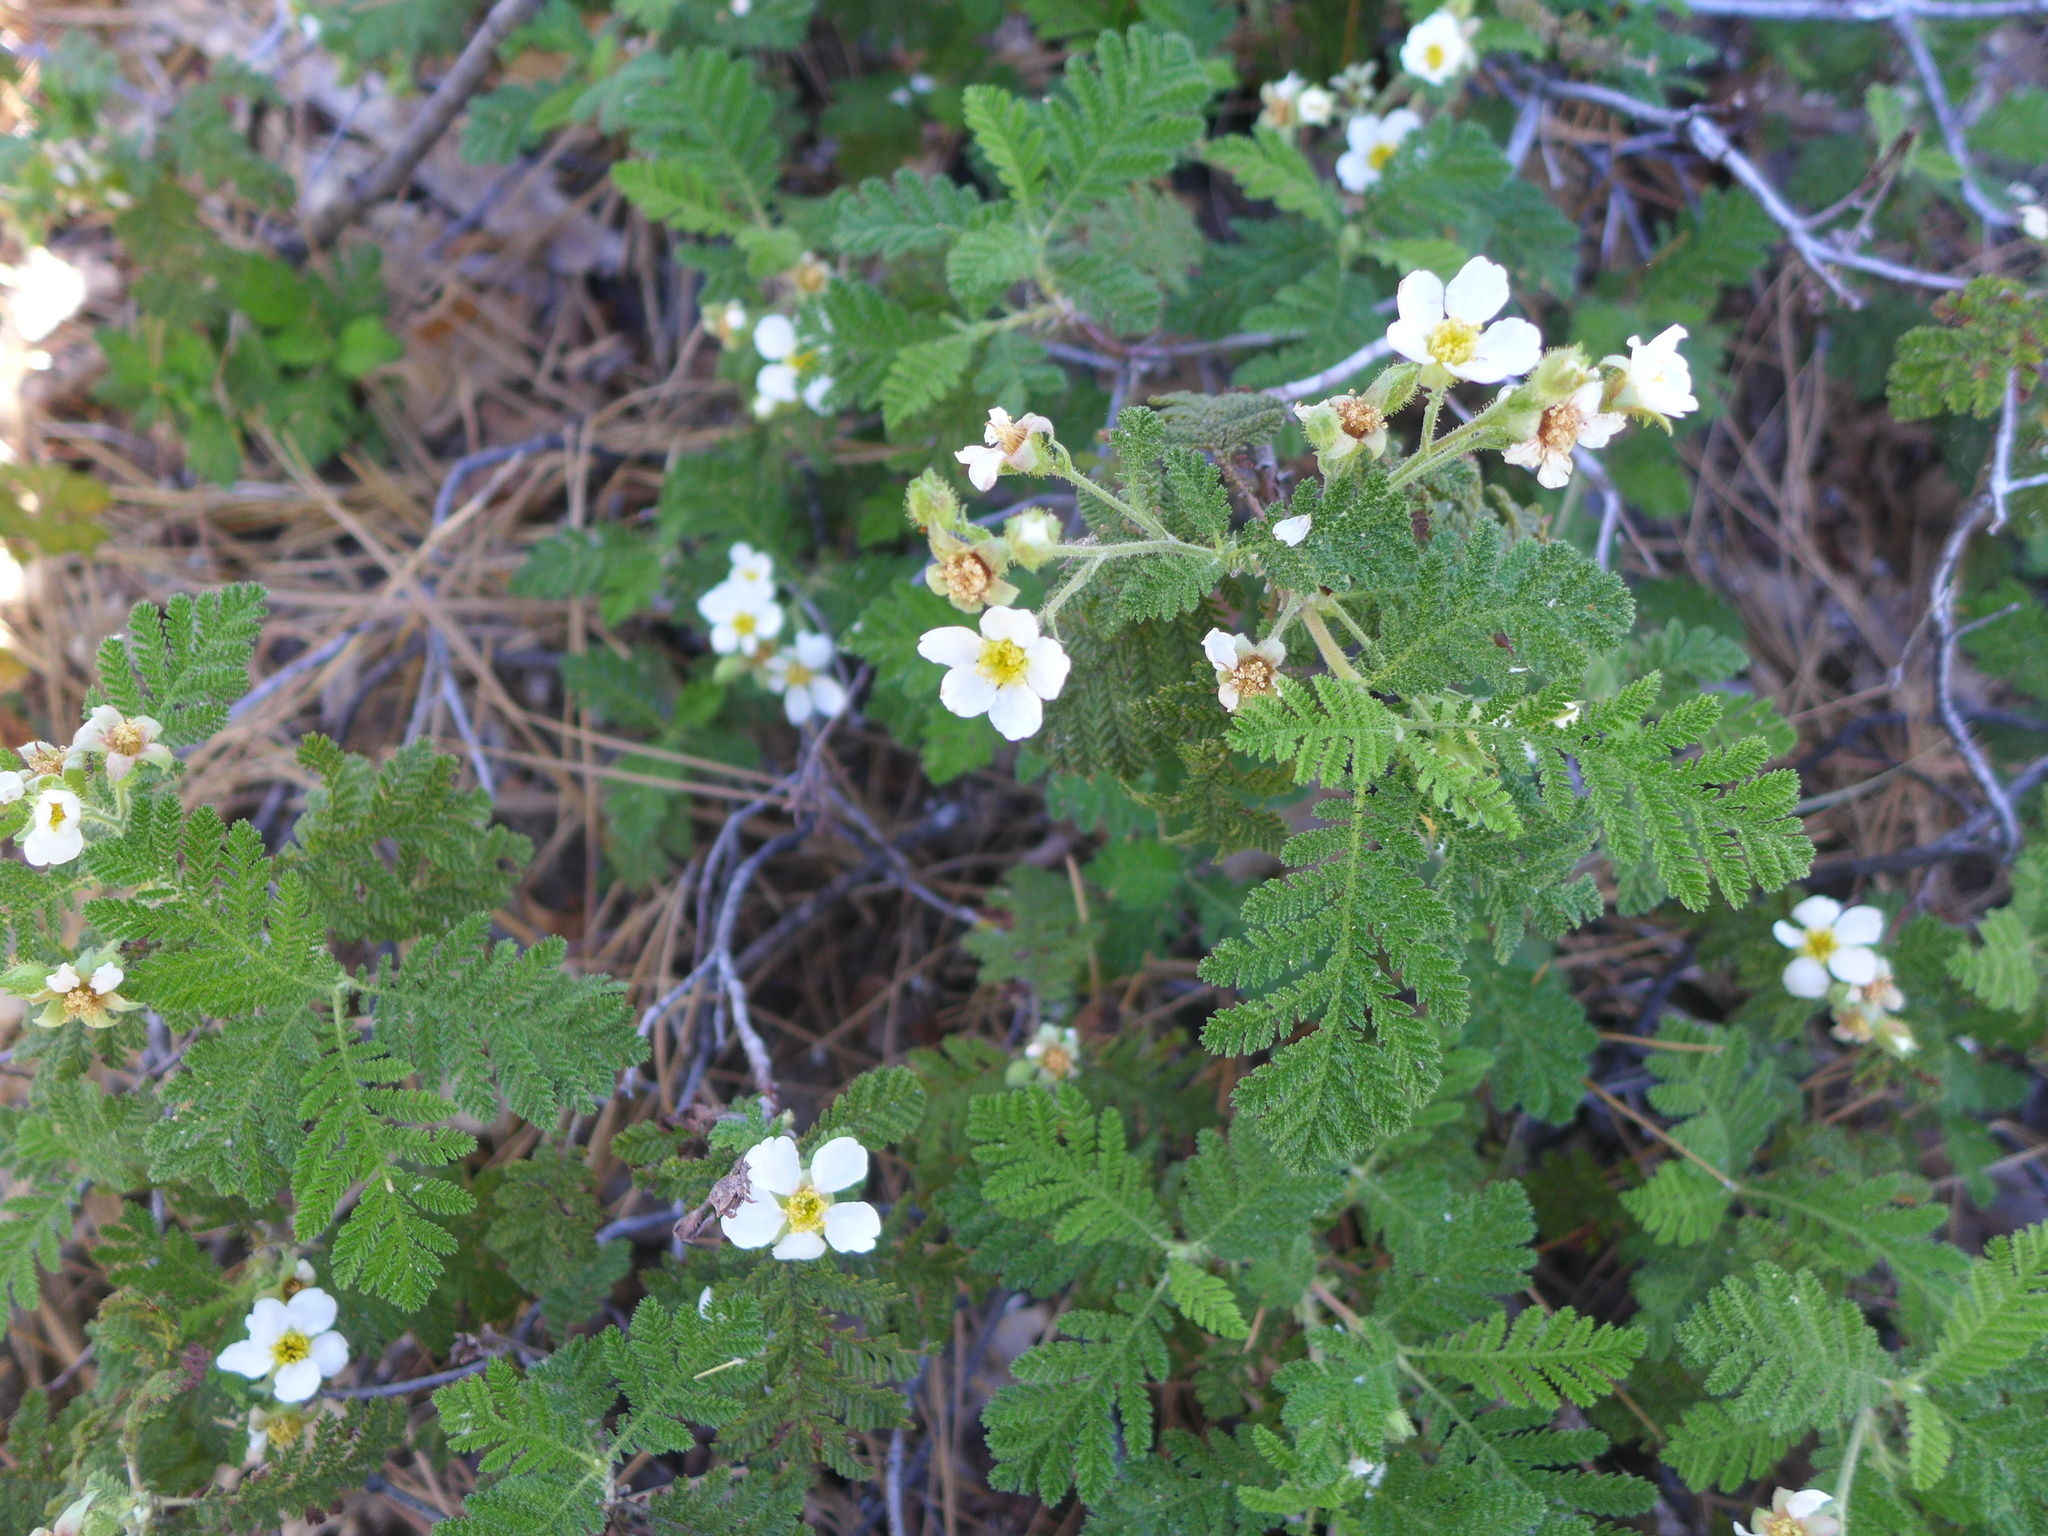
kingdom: Plantae
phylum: Tracheophyta
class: Magnoliopsida
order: Rosales
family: Rosaceae
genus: Chamaebatia
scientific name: Chamaebatia foliolosa
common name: Mountain misery
